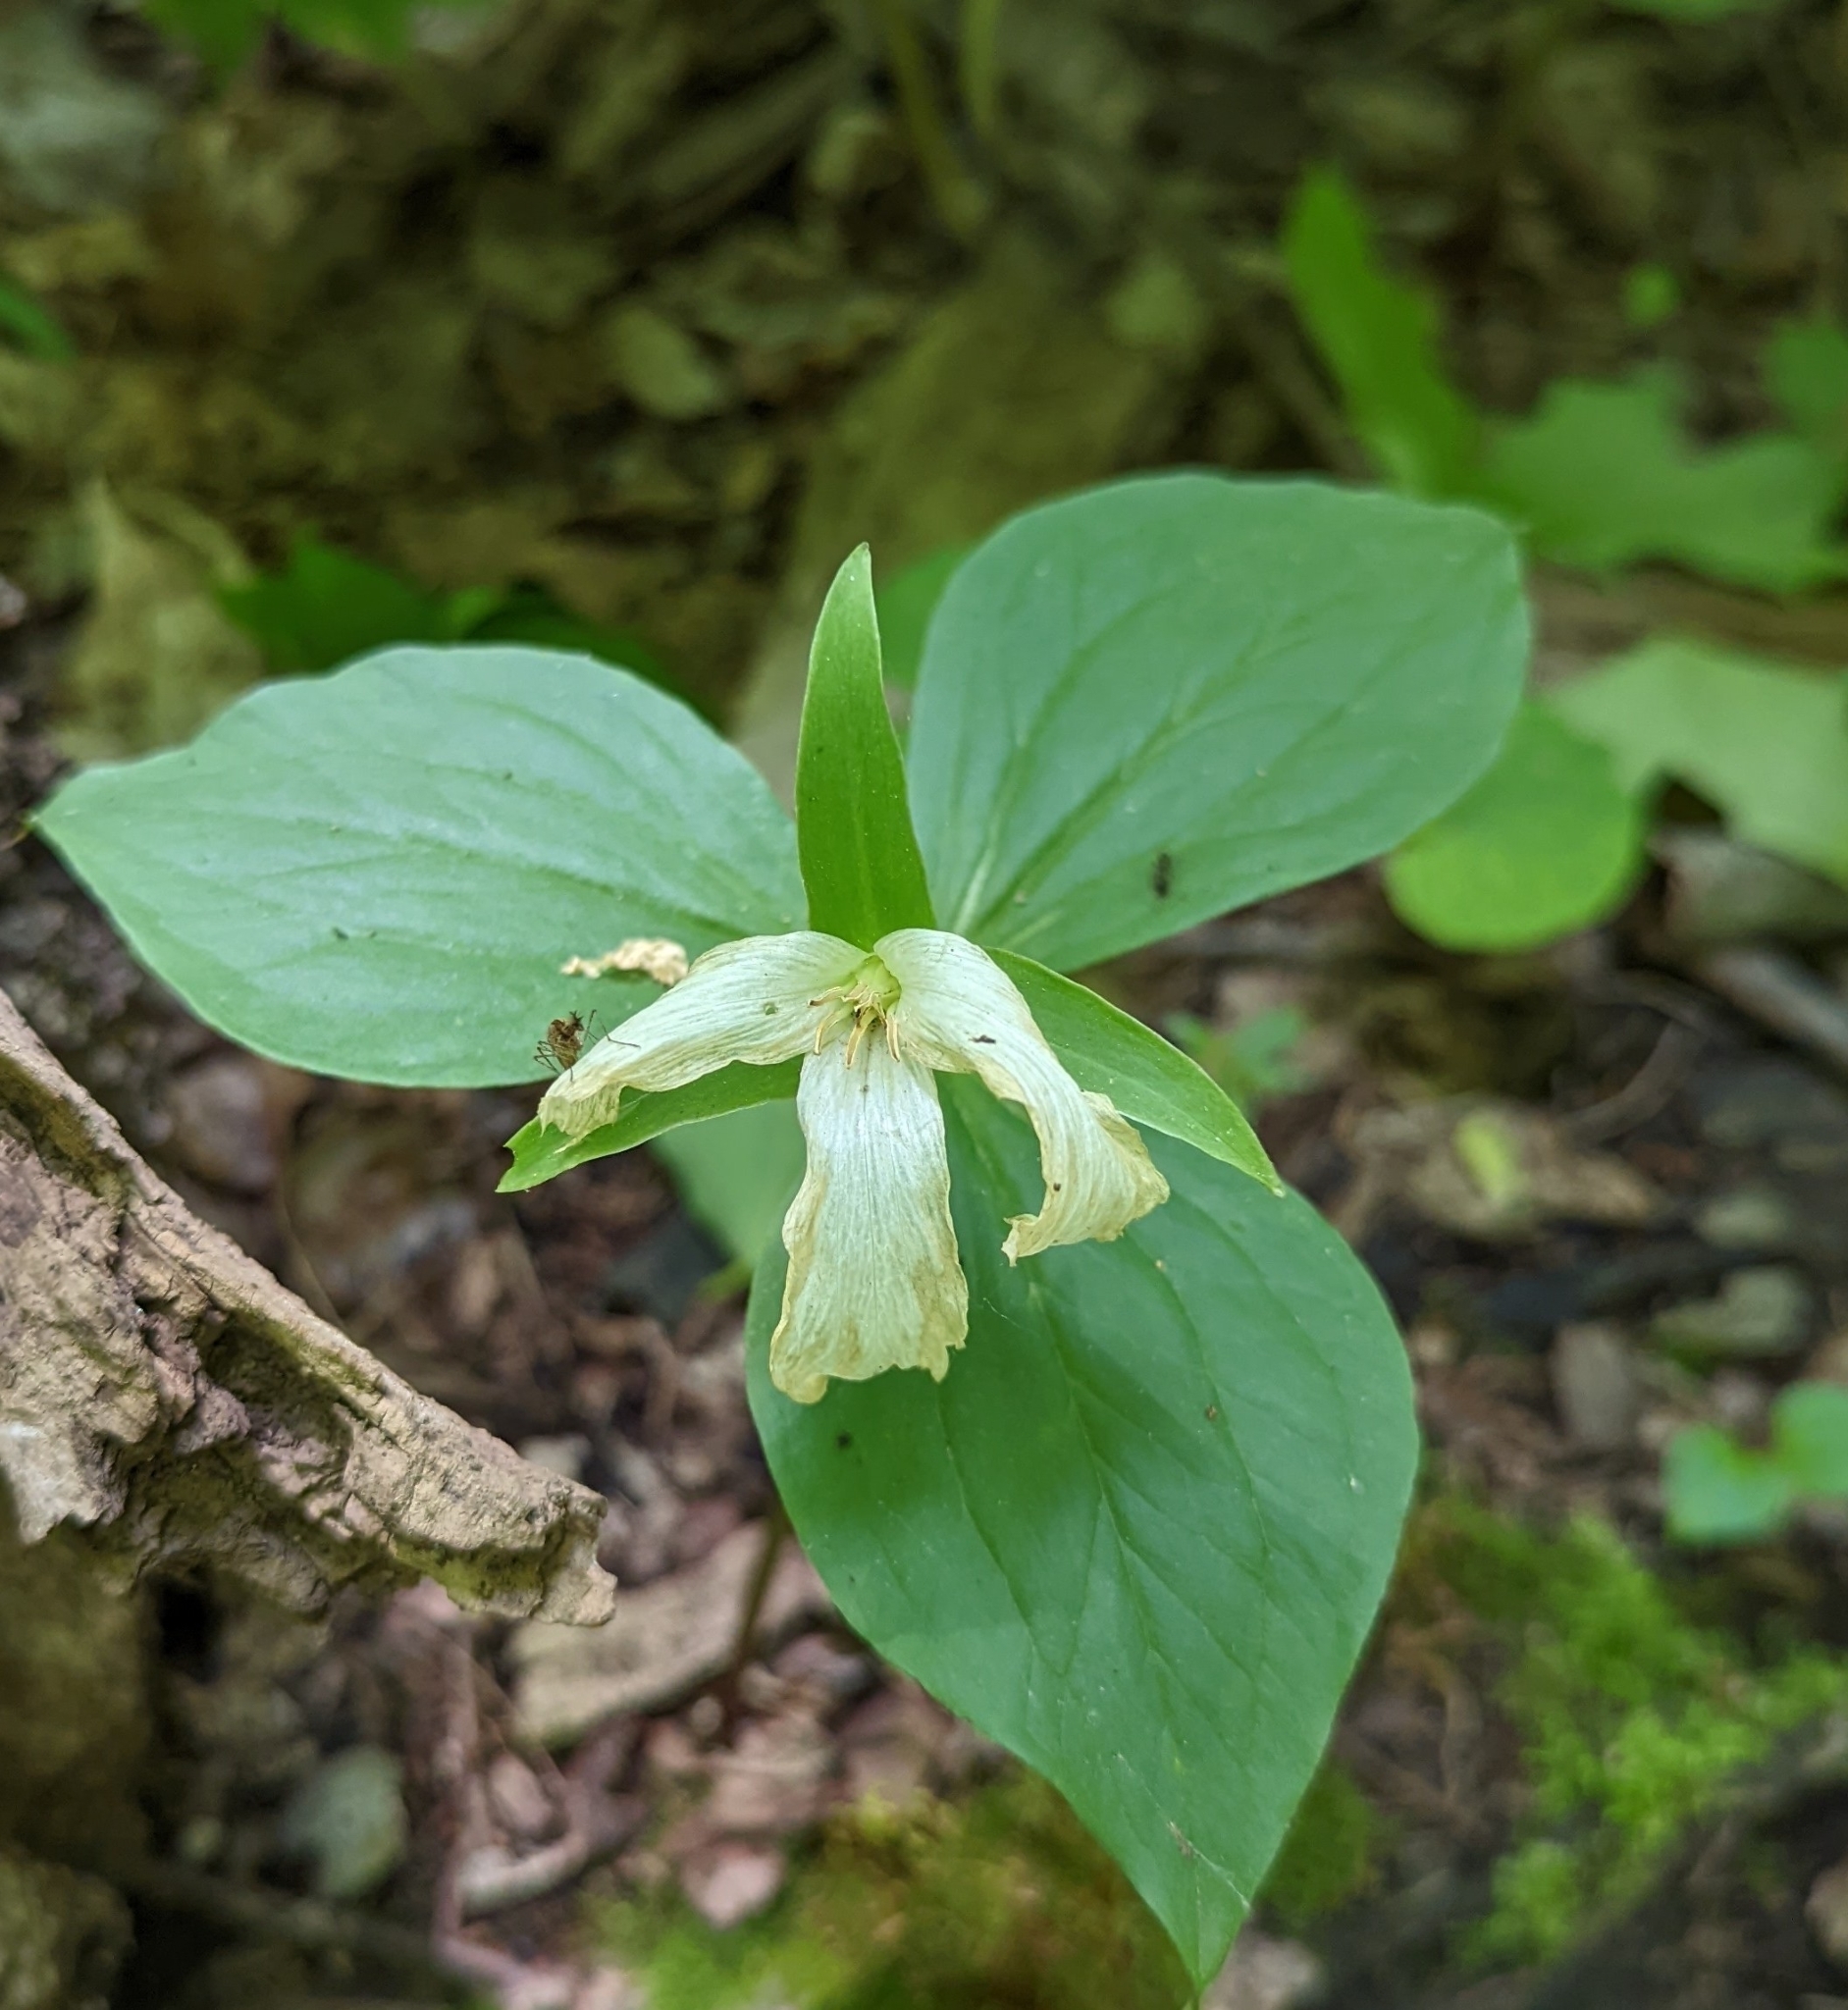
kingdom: Plantae
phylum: Tracheophyta
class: Liliopsida
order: Liliales
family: Melanthiaceae
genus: Trillium
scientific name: Trillium grandiflorum
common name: Great white trillium
